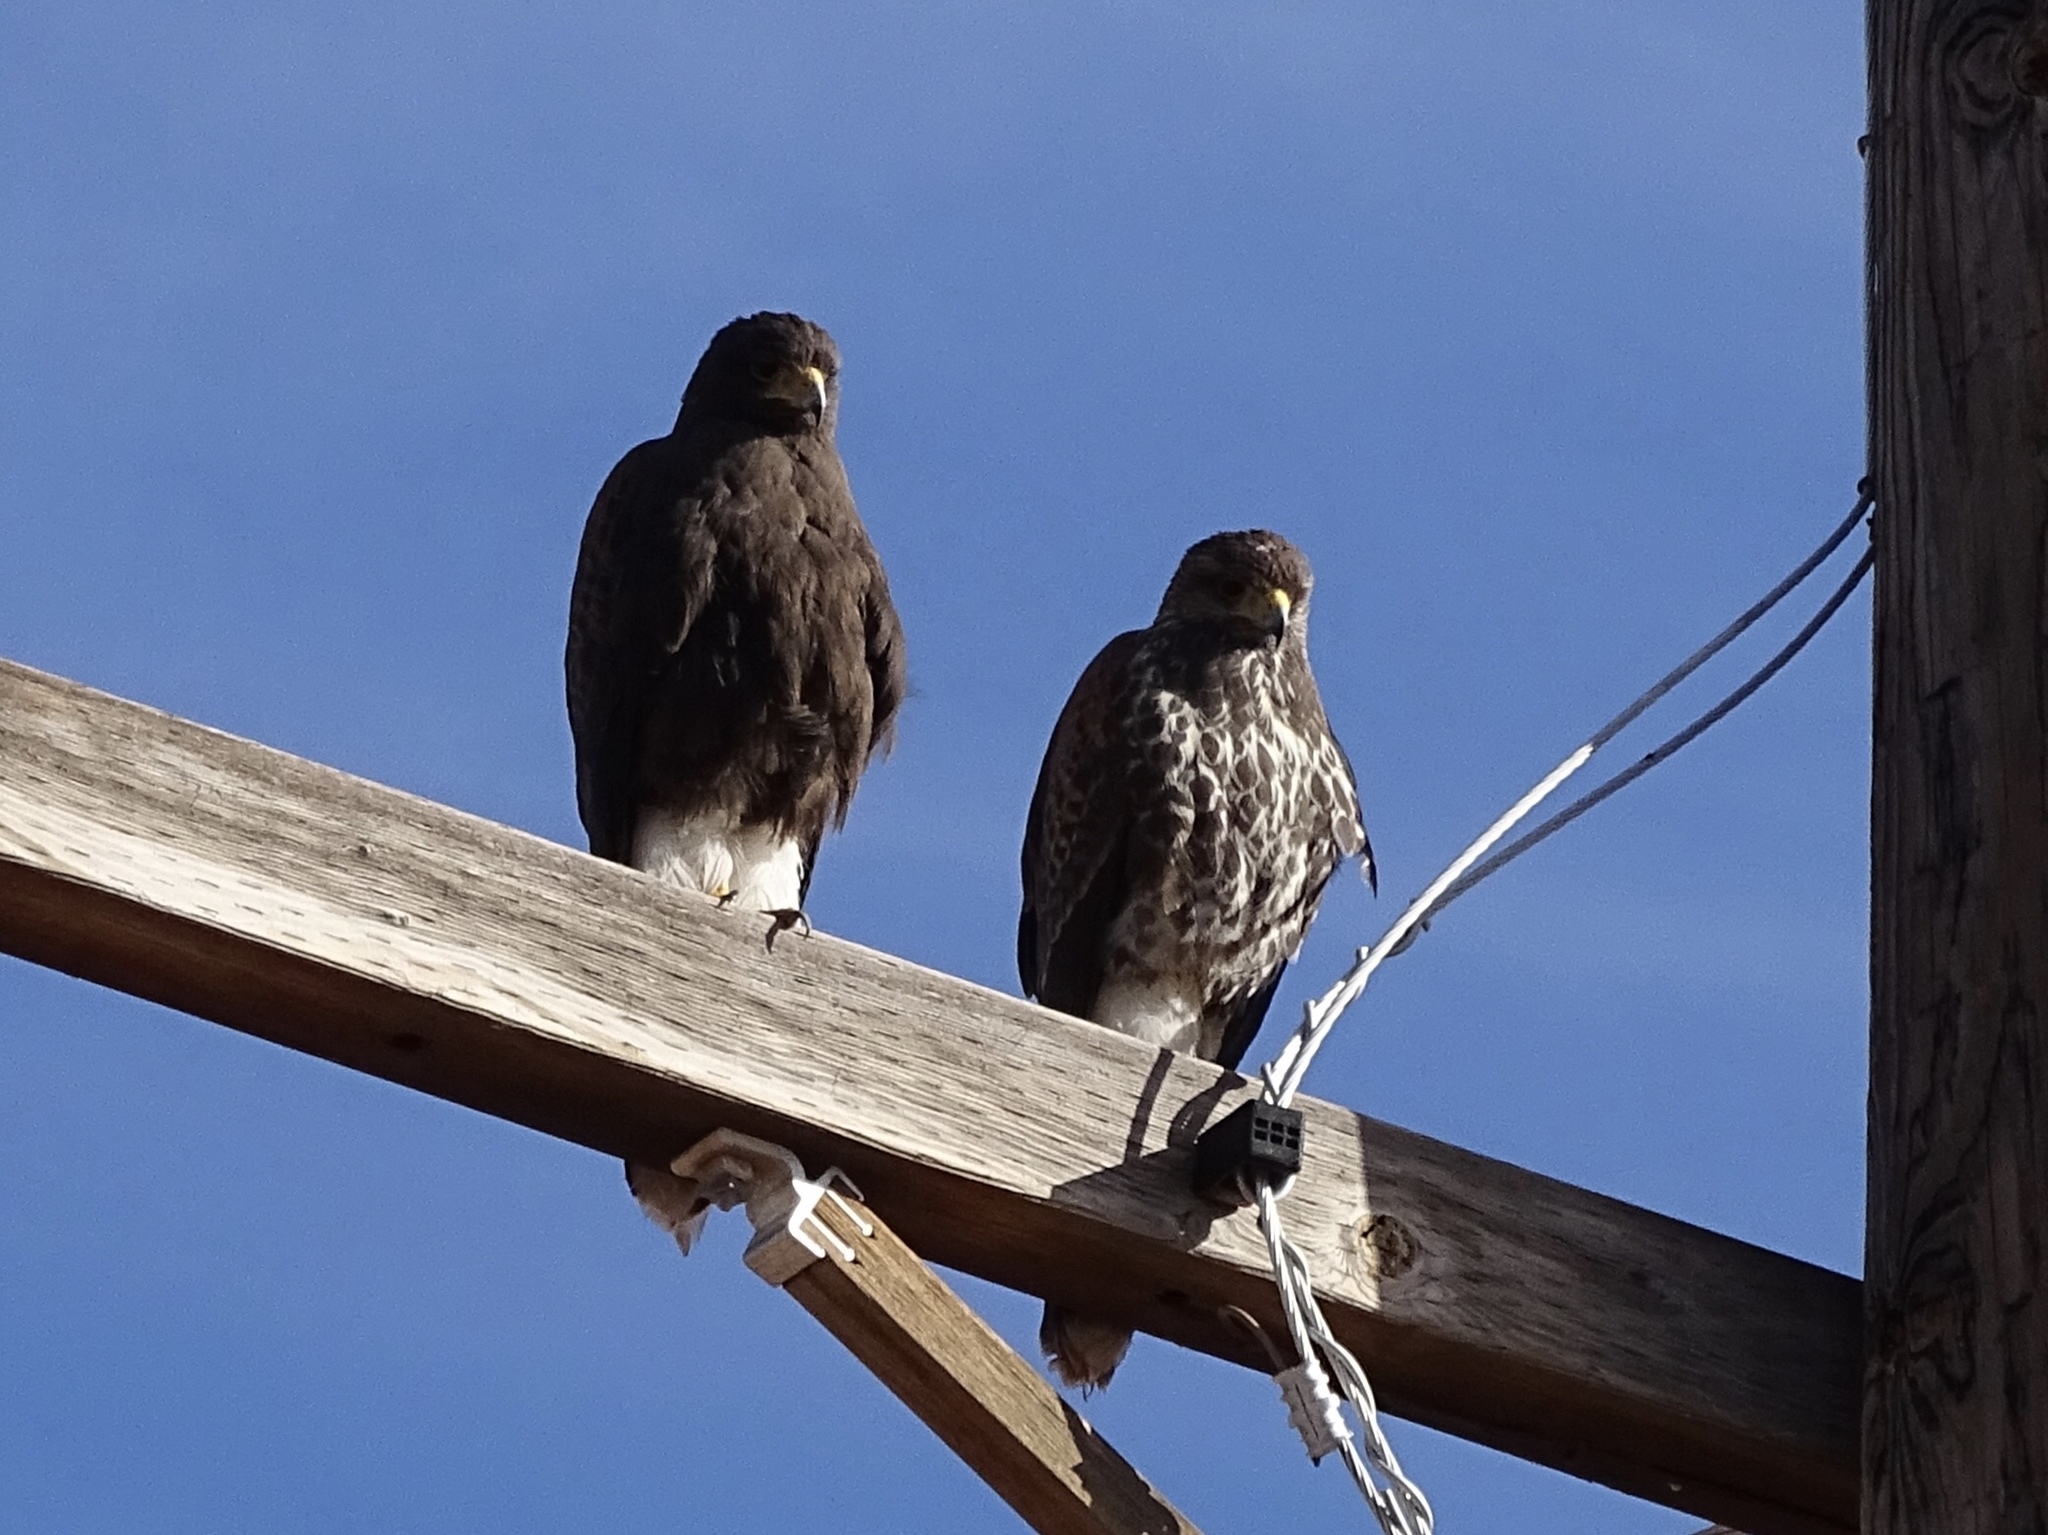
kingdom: Animalia
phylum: Chordata
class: Aves
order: Accipitriformes
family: Accipitridae
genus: Parabuteo
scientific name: Parabuteo unicinctus
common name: Harris's hawk
